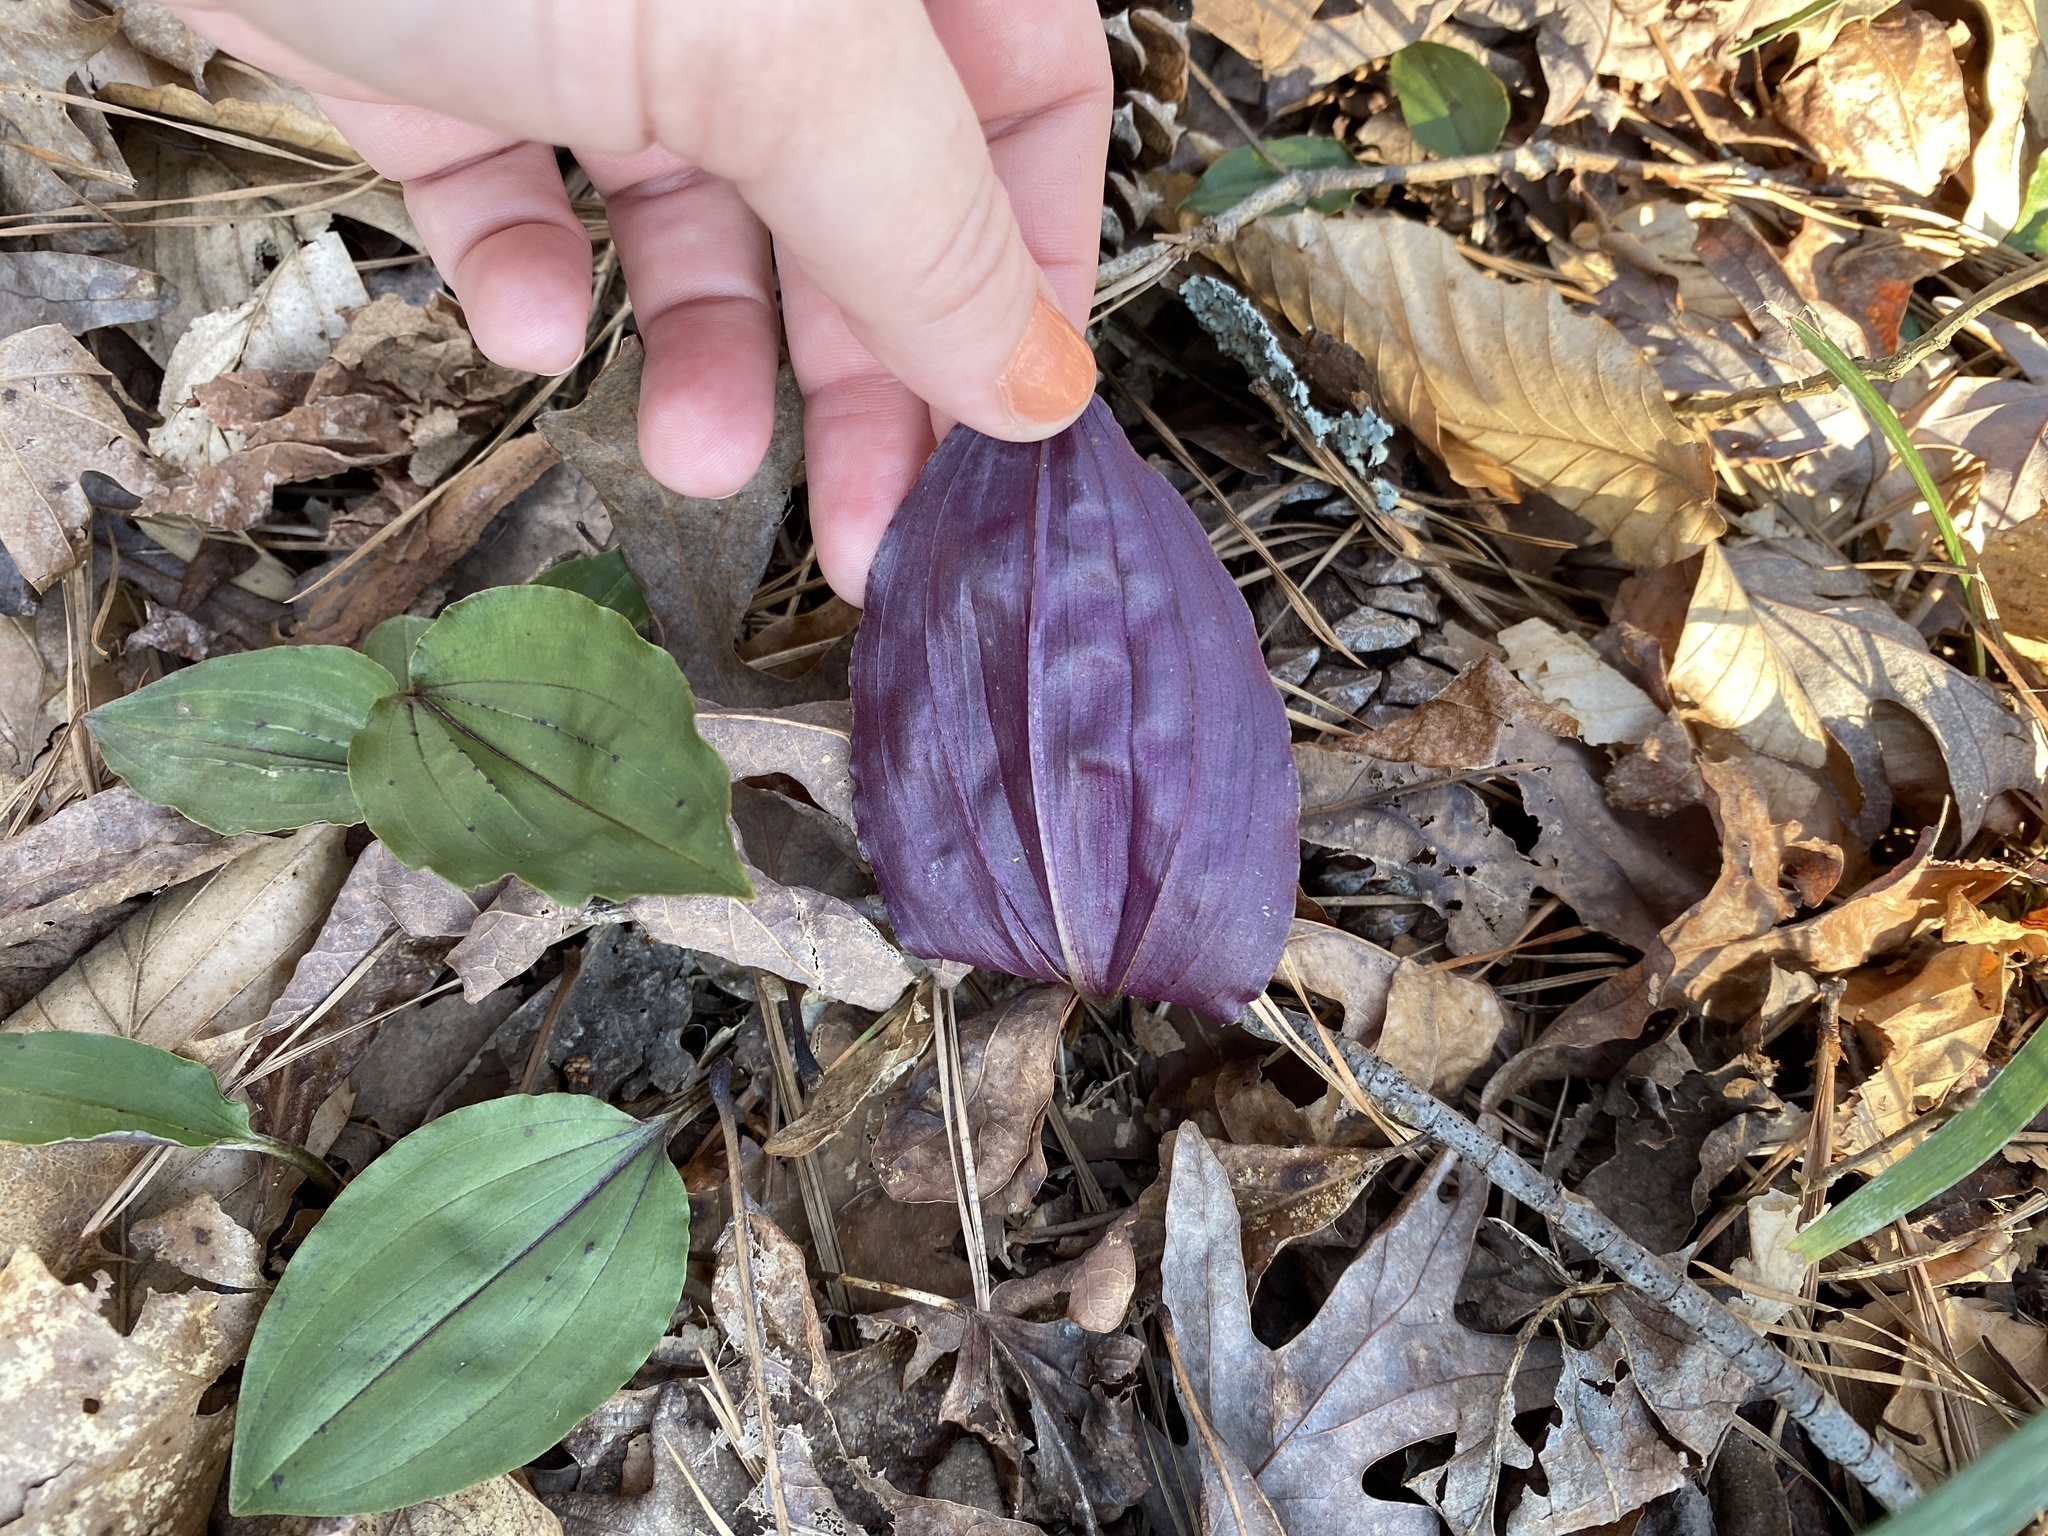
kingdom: Plantae
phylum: Tracheophyta
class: Liliopsida
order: Asparagales
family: Orchidaceae
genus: Tipularia
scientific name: Tipularia discolor
